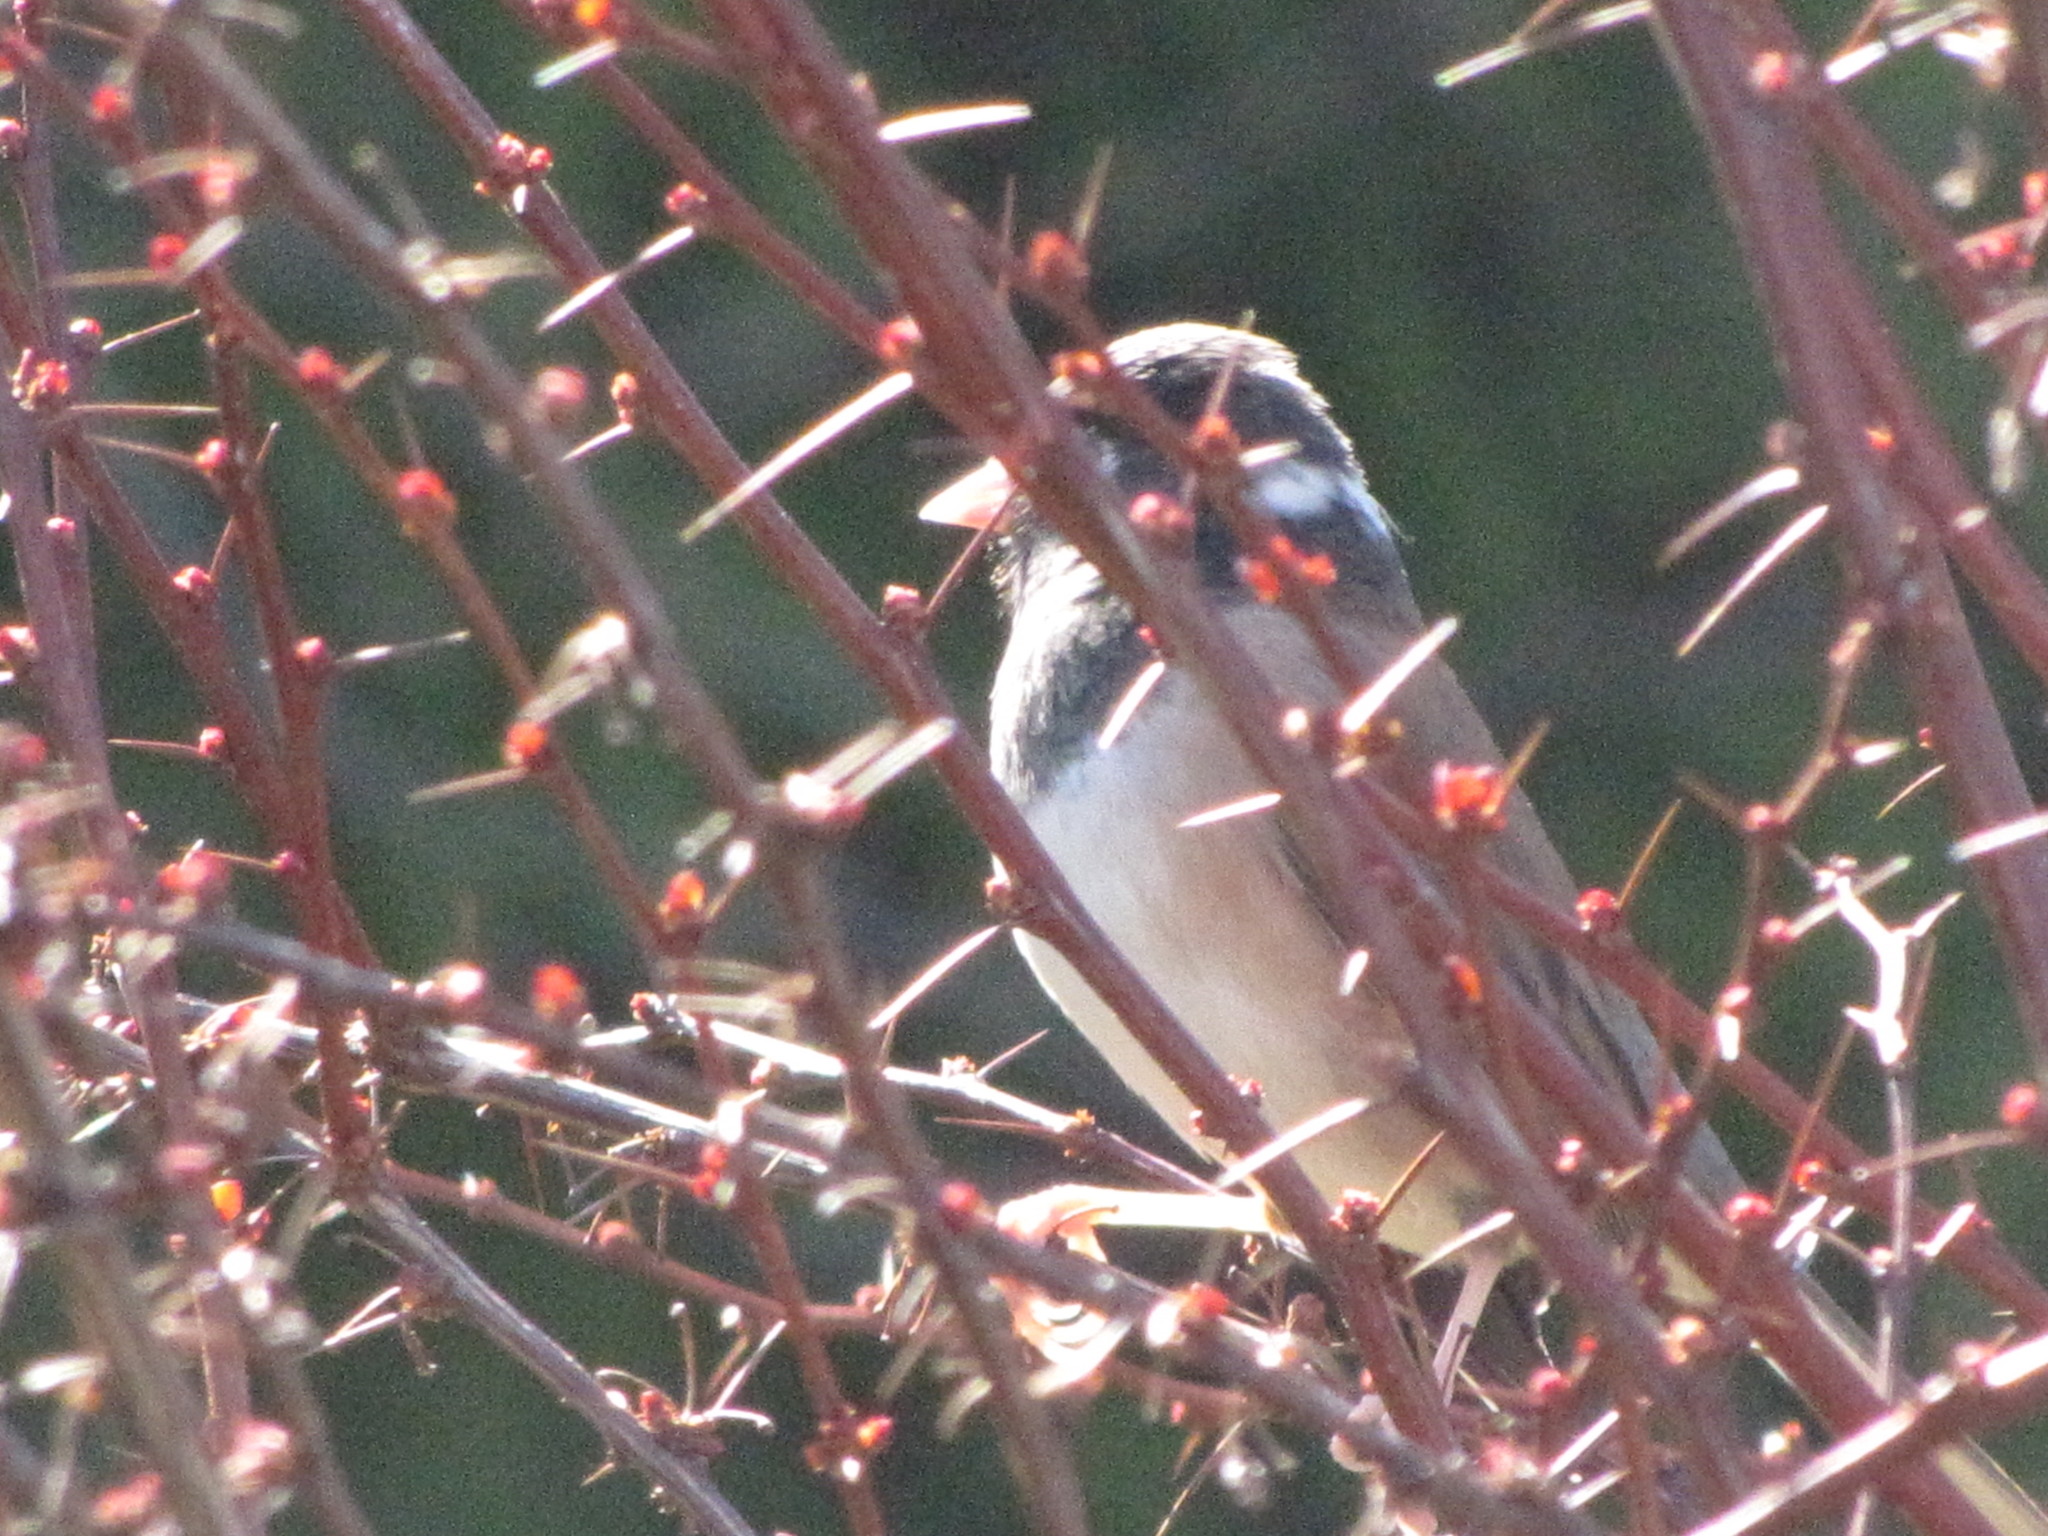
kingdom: Animalia
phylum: Chordata
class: Aves
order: Passeriformes
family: Passerellidae
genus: Junco
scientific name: Junco hyemalis
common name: Dark-eyed junco
